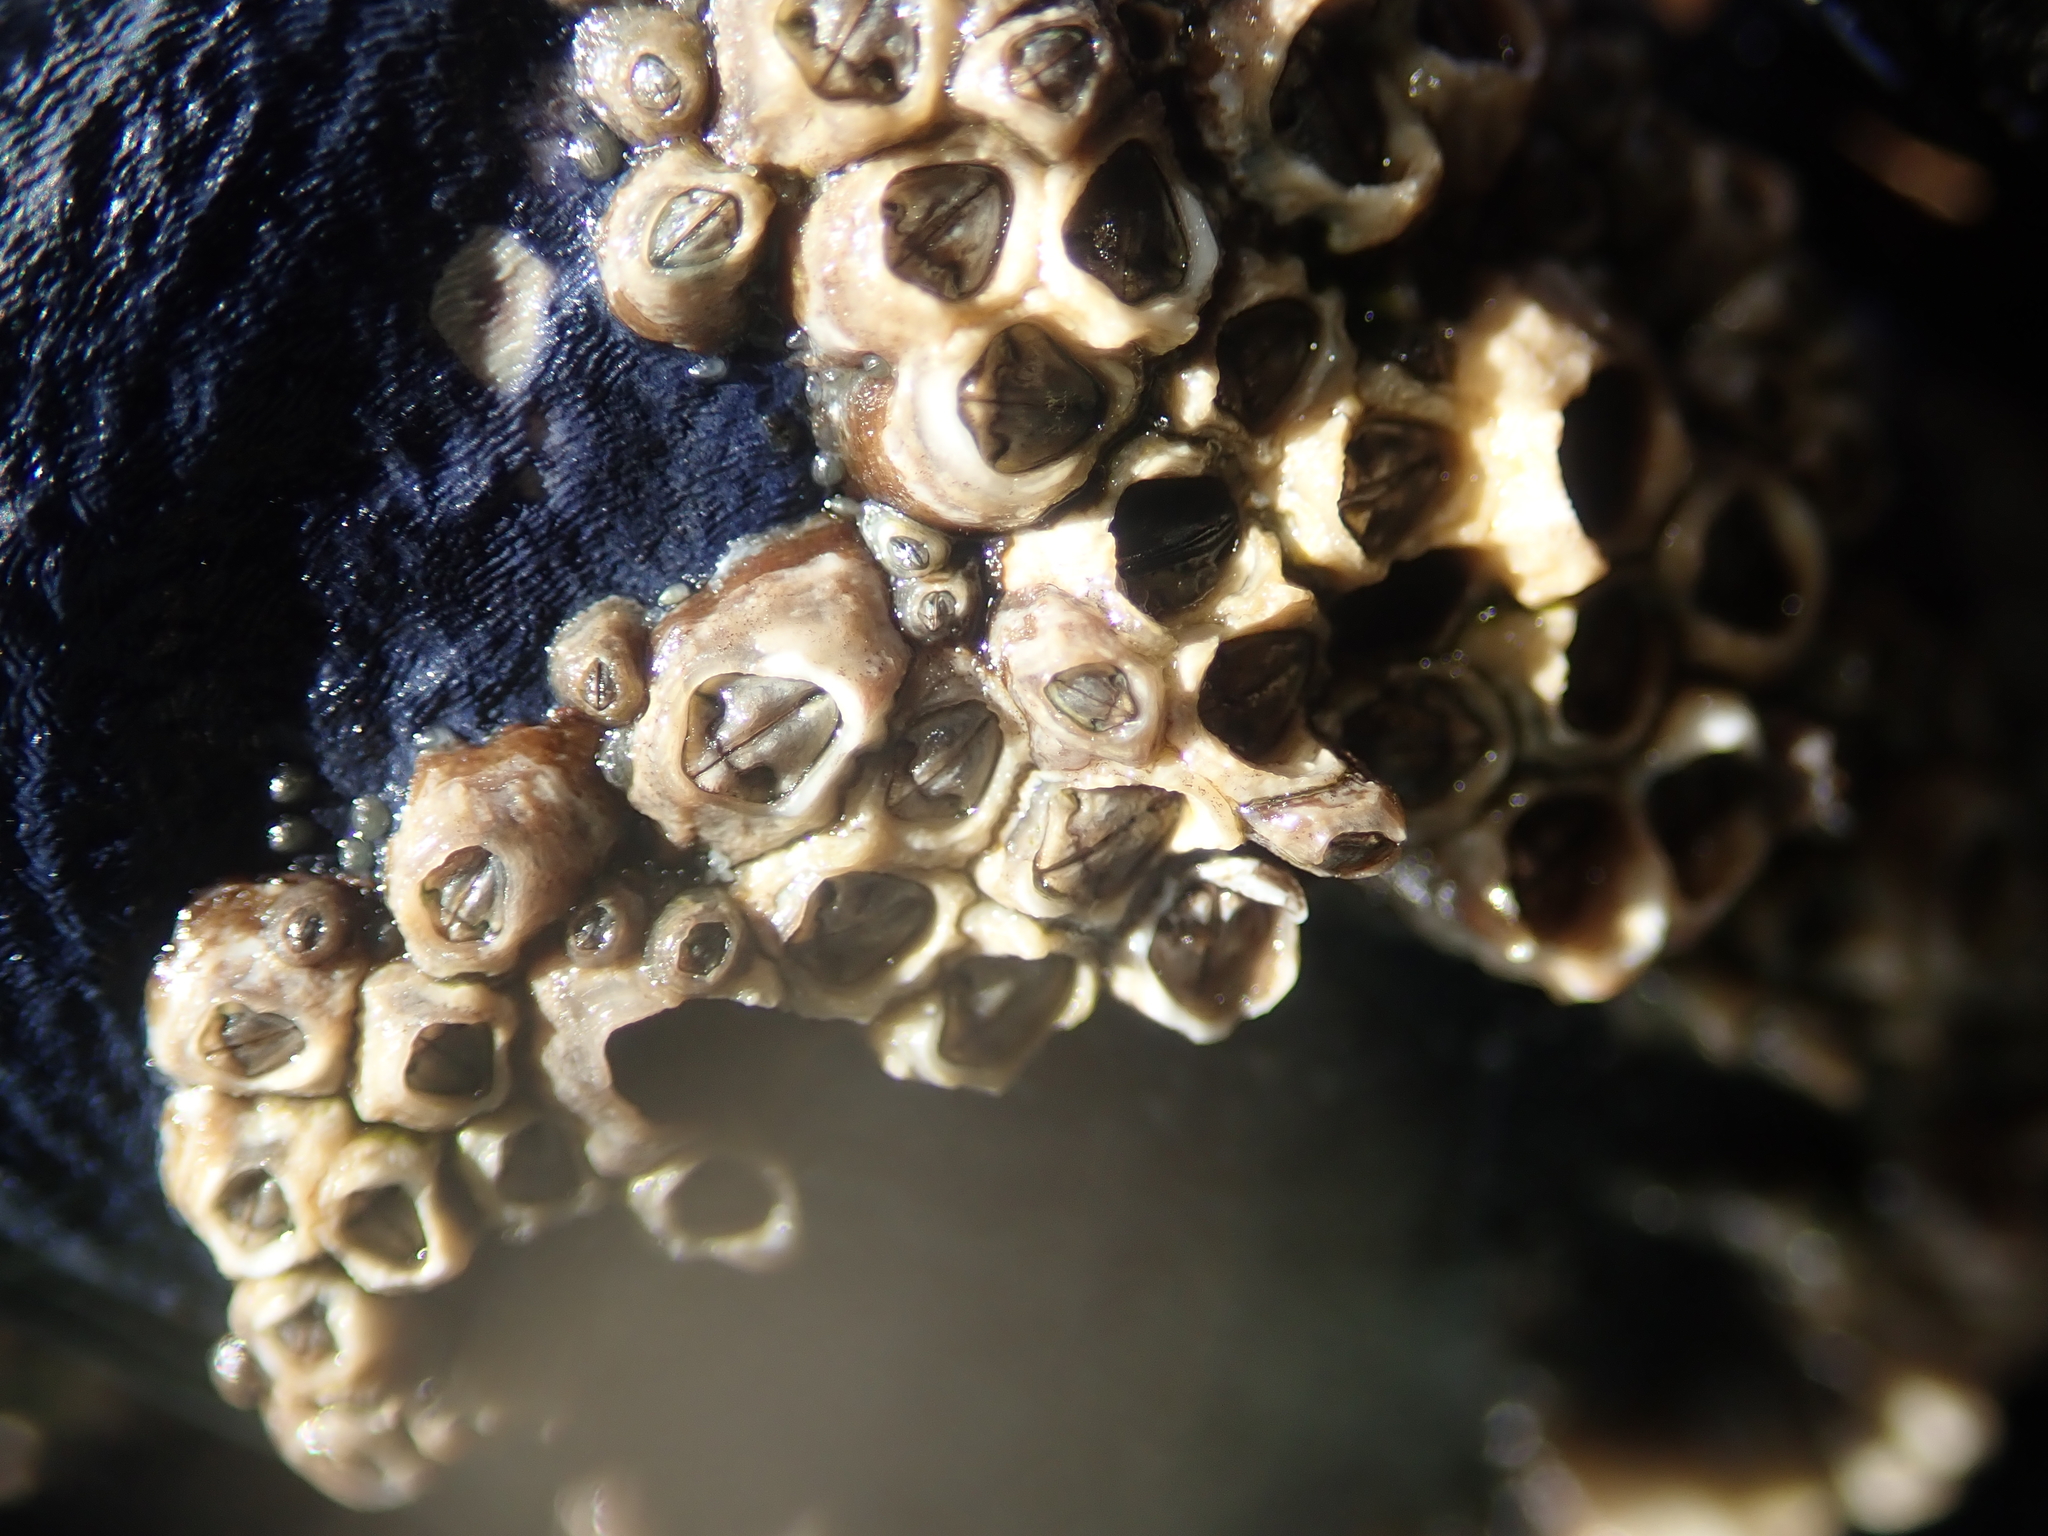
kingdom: Animalia
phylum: Arthropoda
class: Maxillopoda
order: Sessilia
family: Chthamalidae
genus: Chamaesipho
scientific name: Chamaesipho columna
